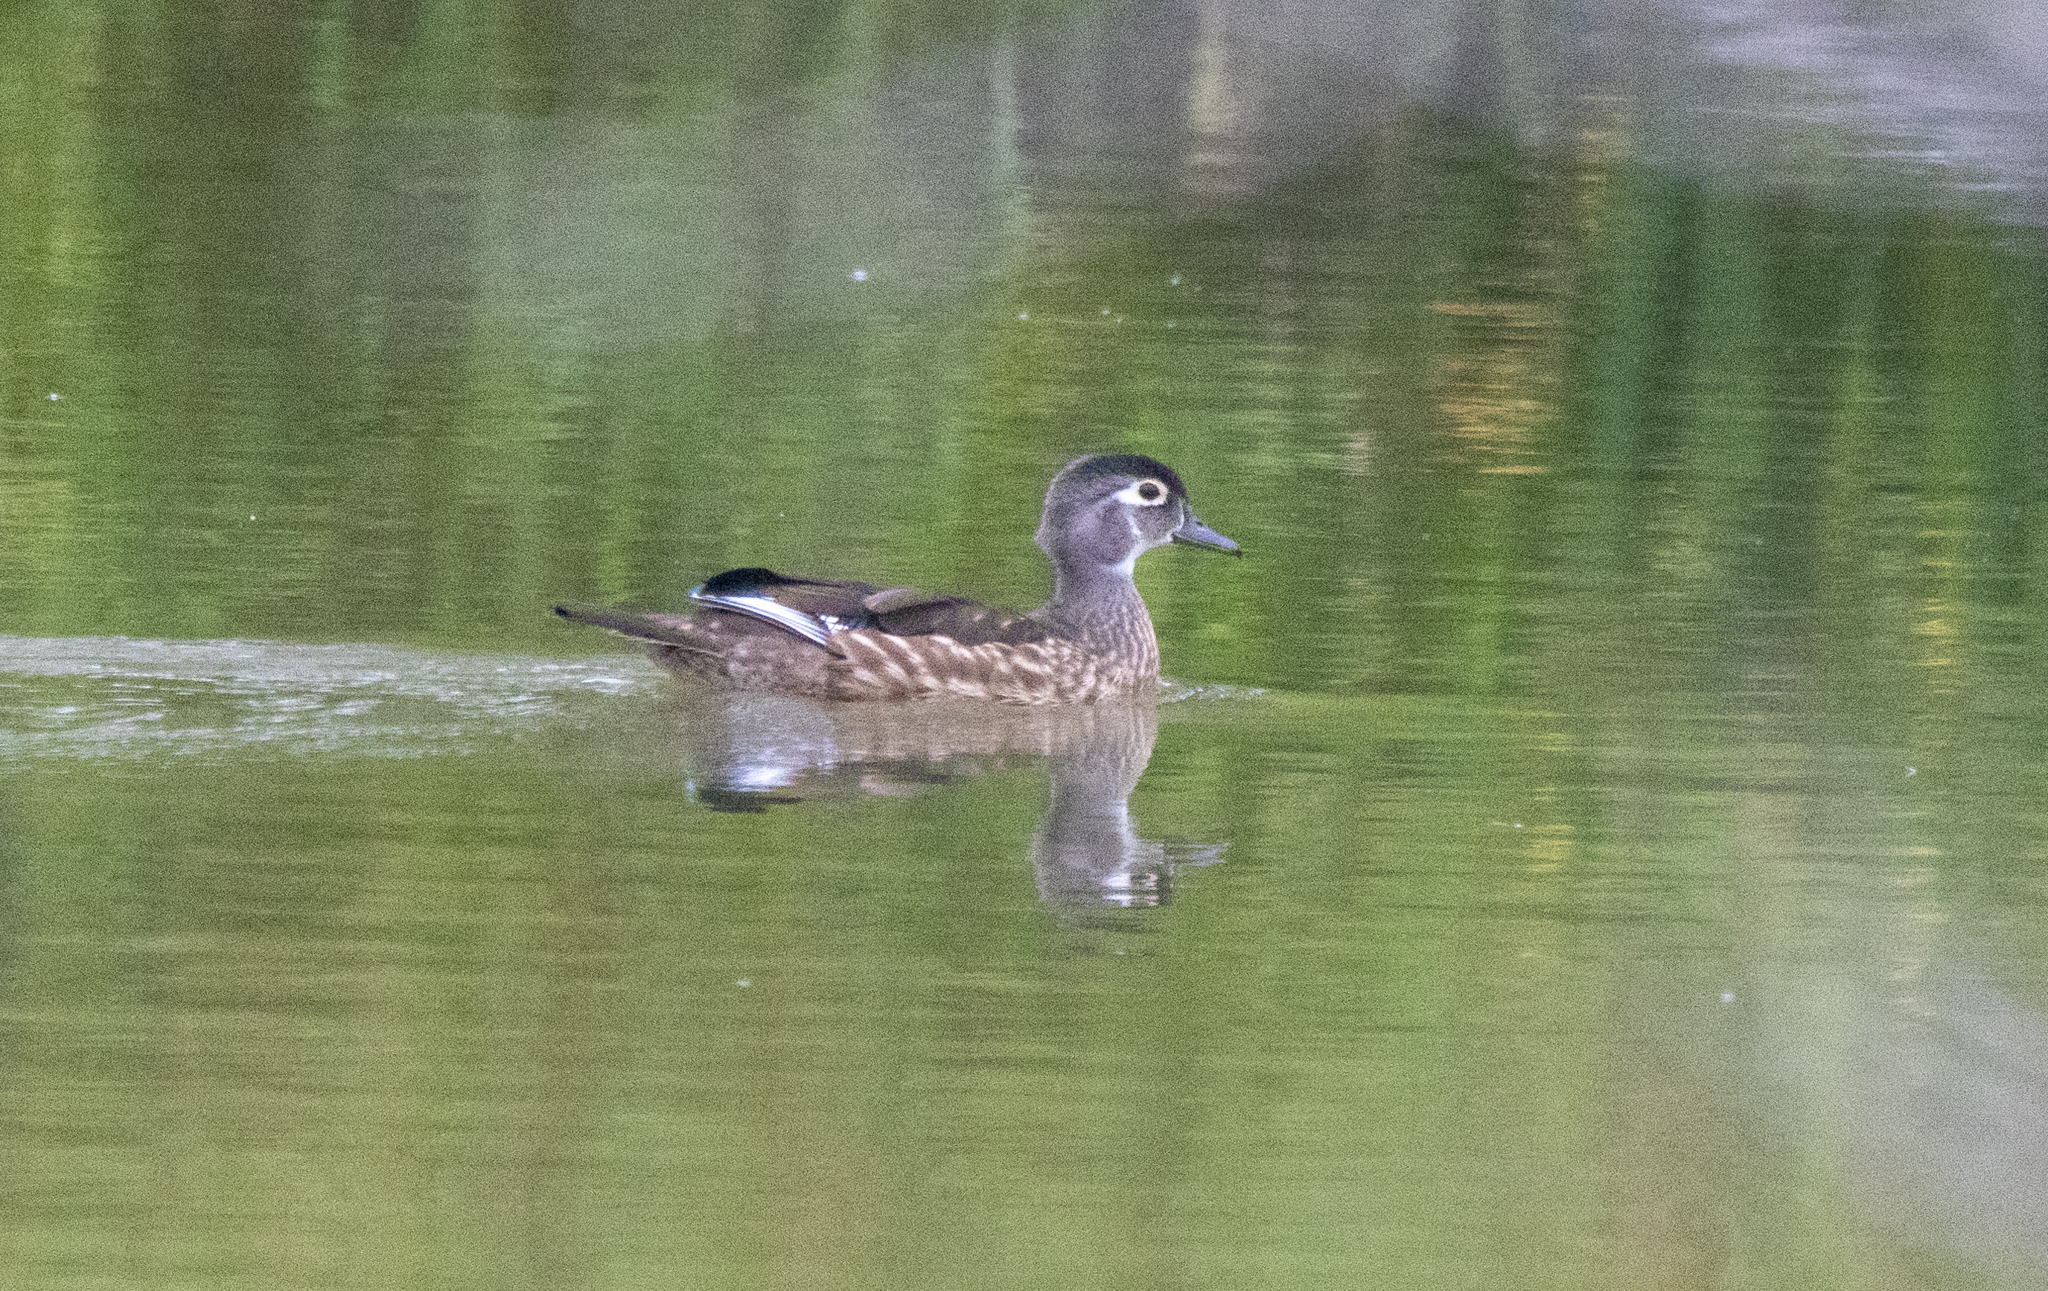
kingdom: Animalia
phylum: Chordata
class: Aves
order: Anseriformes
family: Anatidae
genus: Aix
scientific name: Aix sponsa
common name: Wood duck
